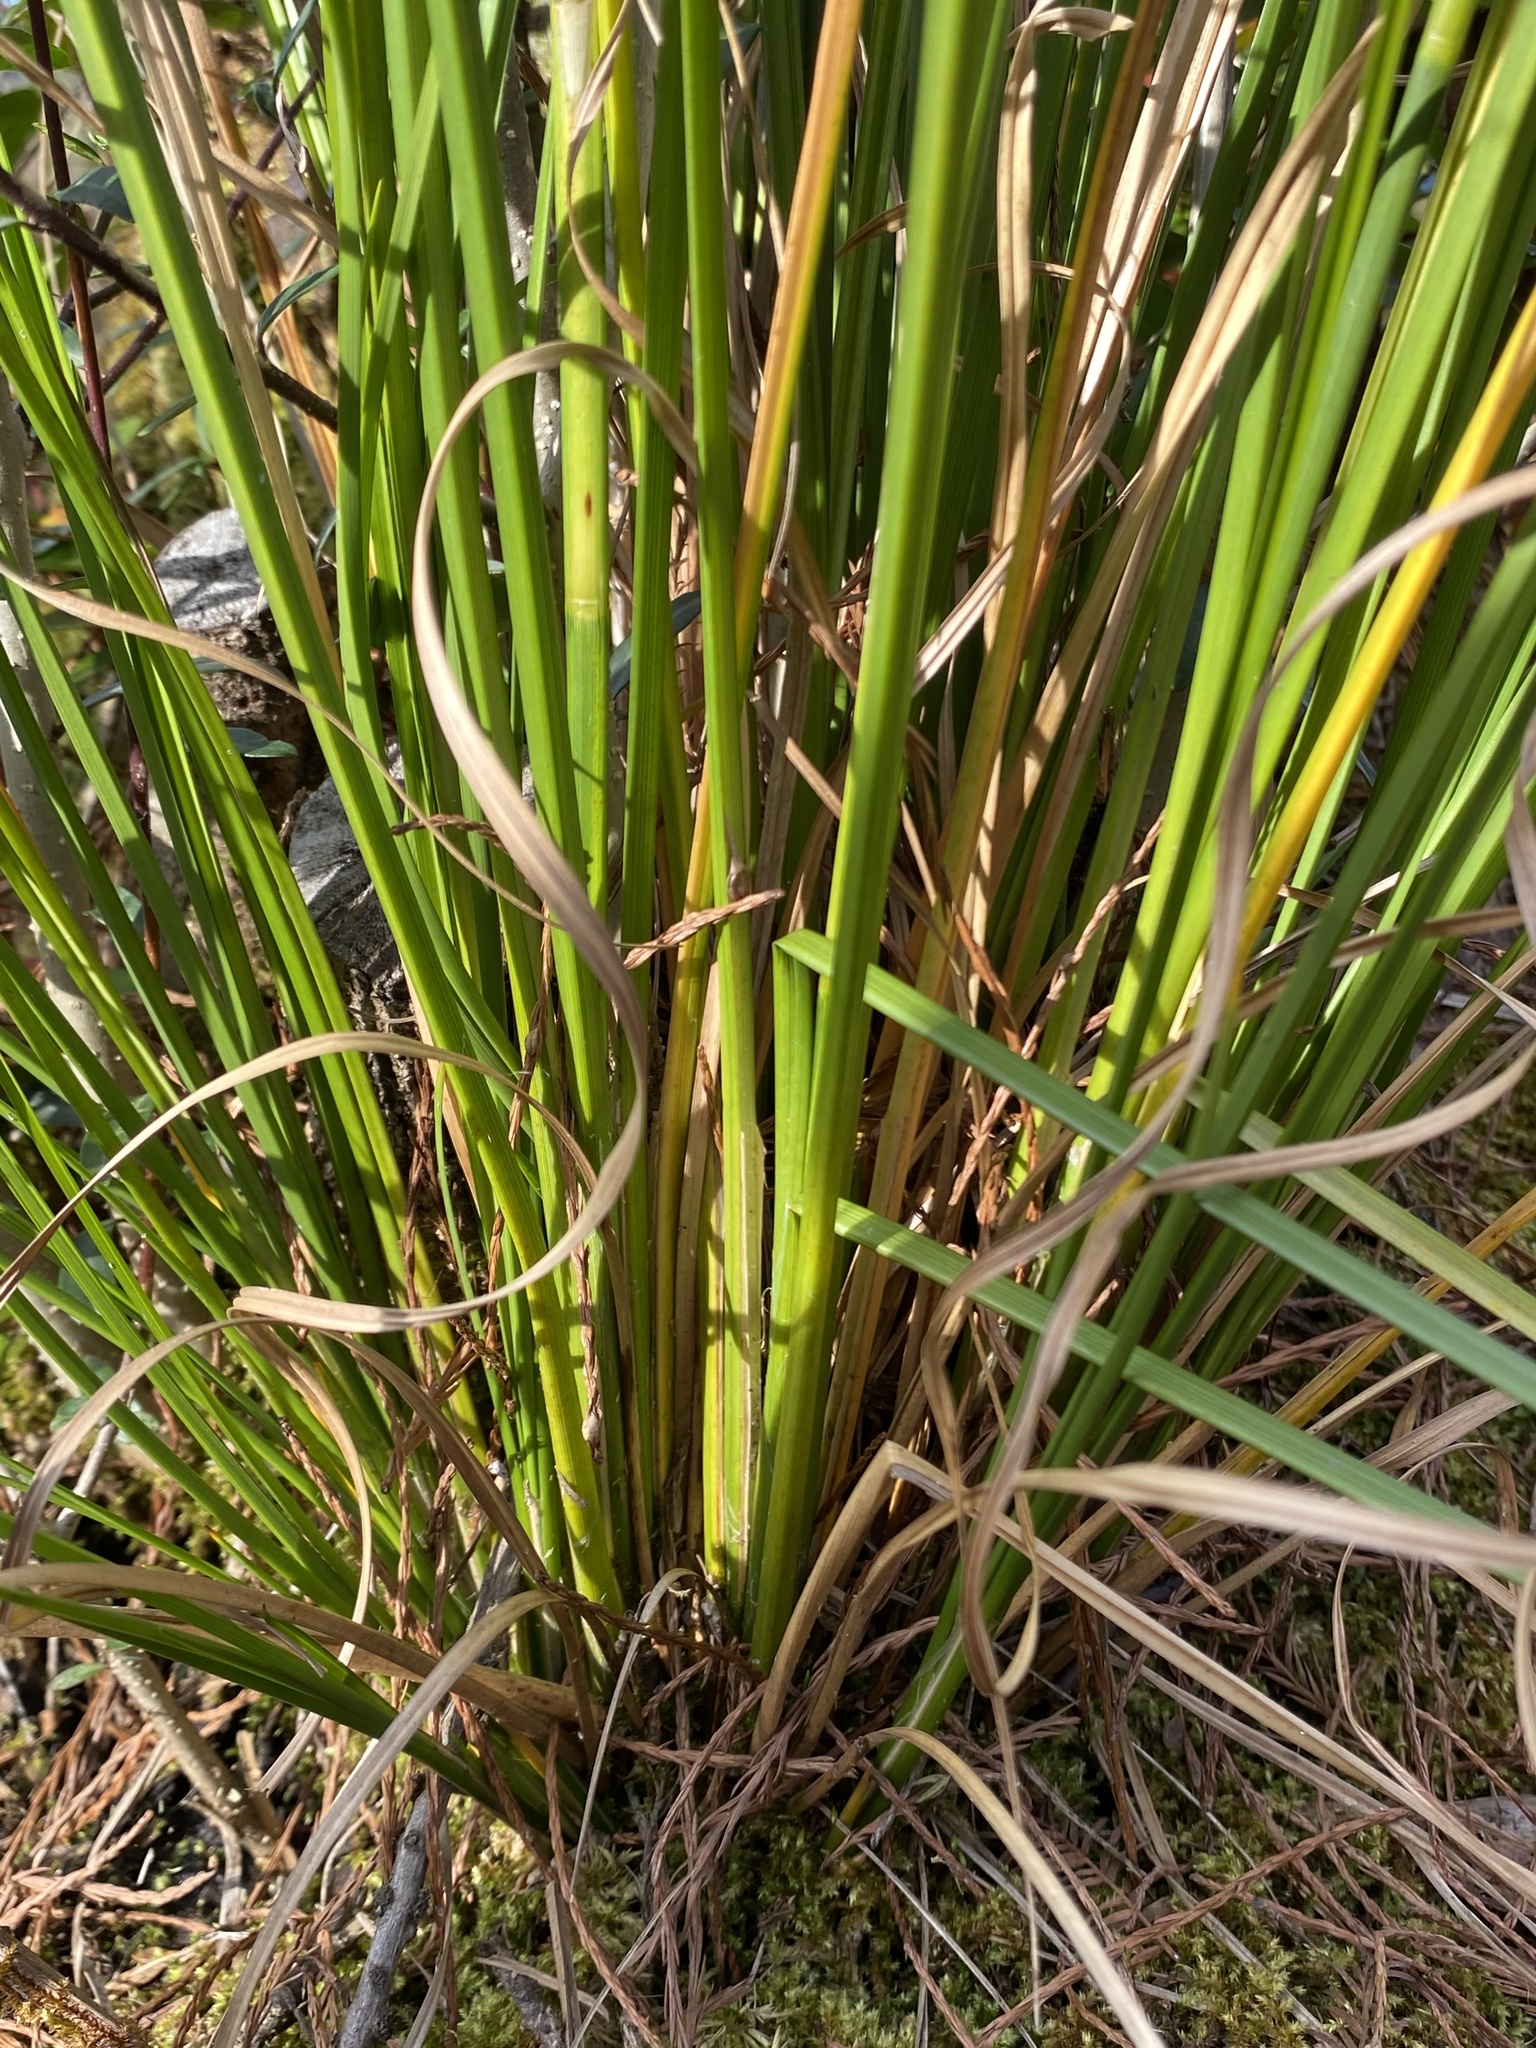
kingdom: Plantae
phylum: Tracheophyta
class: Liliopsida
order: Poales
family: Cyperaceae
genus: Rhynchospora
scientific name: Rhynchospora cephalantha
